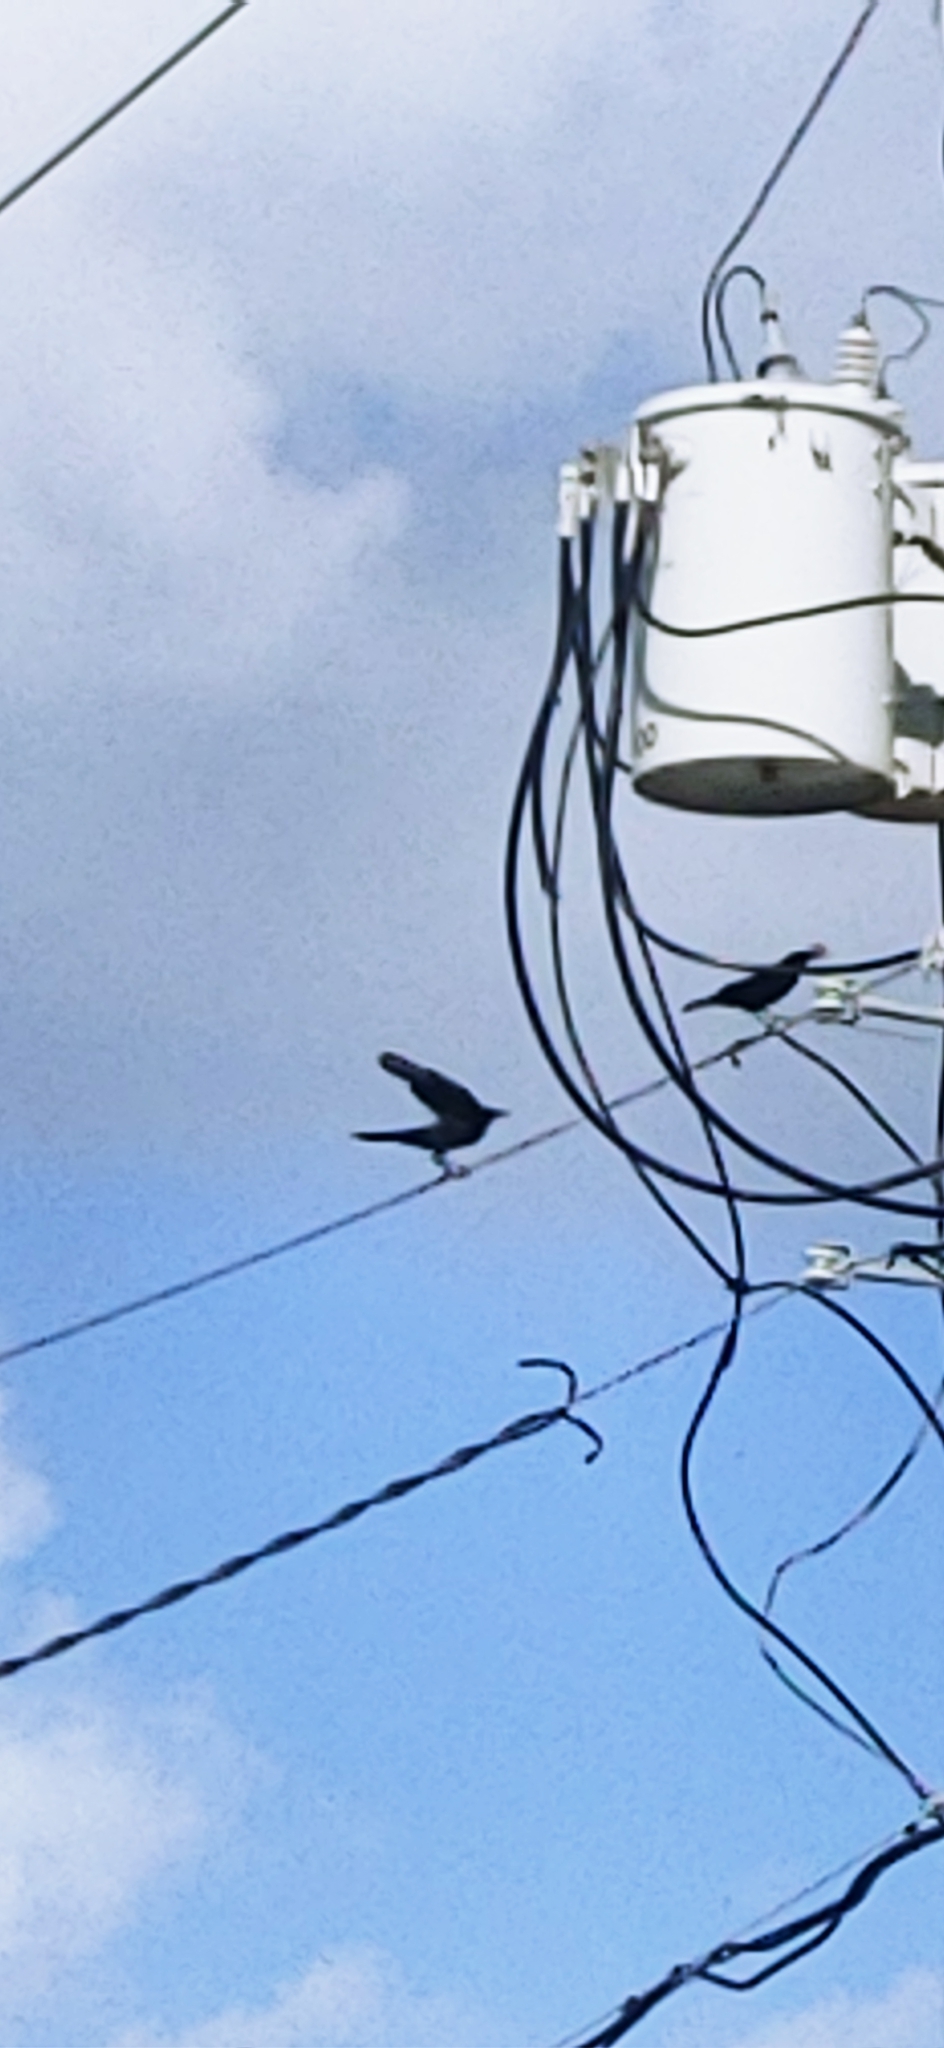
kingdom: Animalia
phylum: Chordata
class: Aves
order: Passeriformes
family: Corvidae
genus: Corvus
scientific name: Corvus
